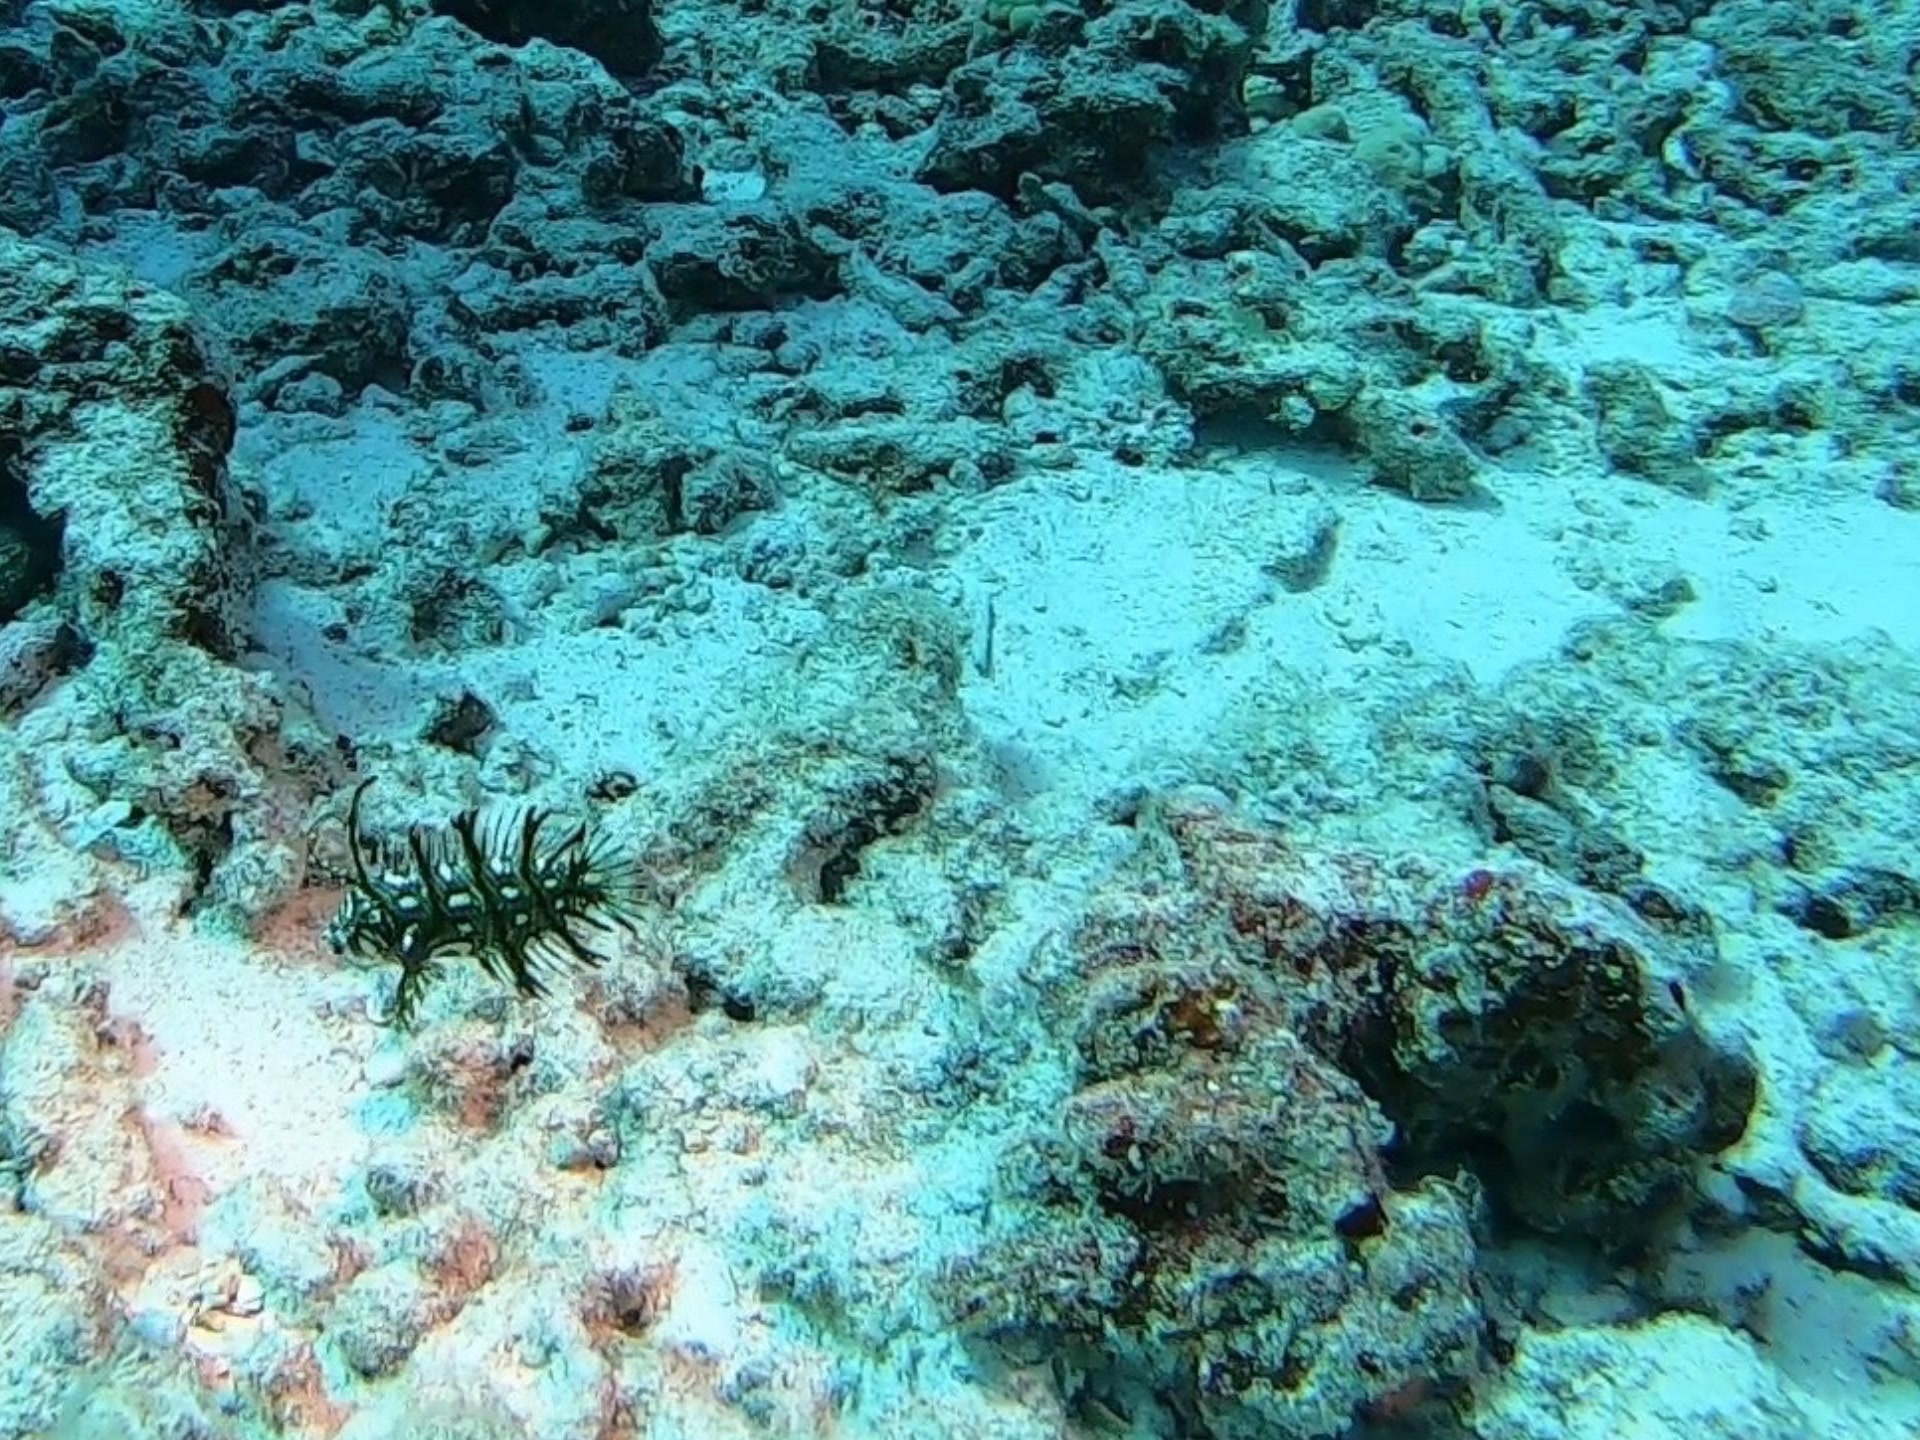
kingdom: Animalia
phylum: Chordata
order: Perciformes
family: Labridae
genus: Novaculichthys
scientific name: Novaculichthys taeniourus
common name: Rockmover wrasse
